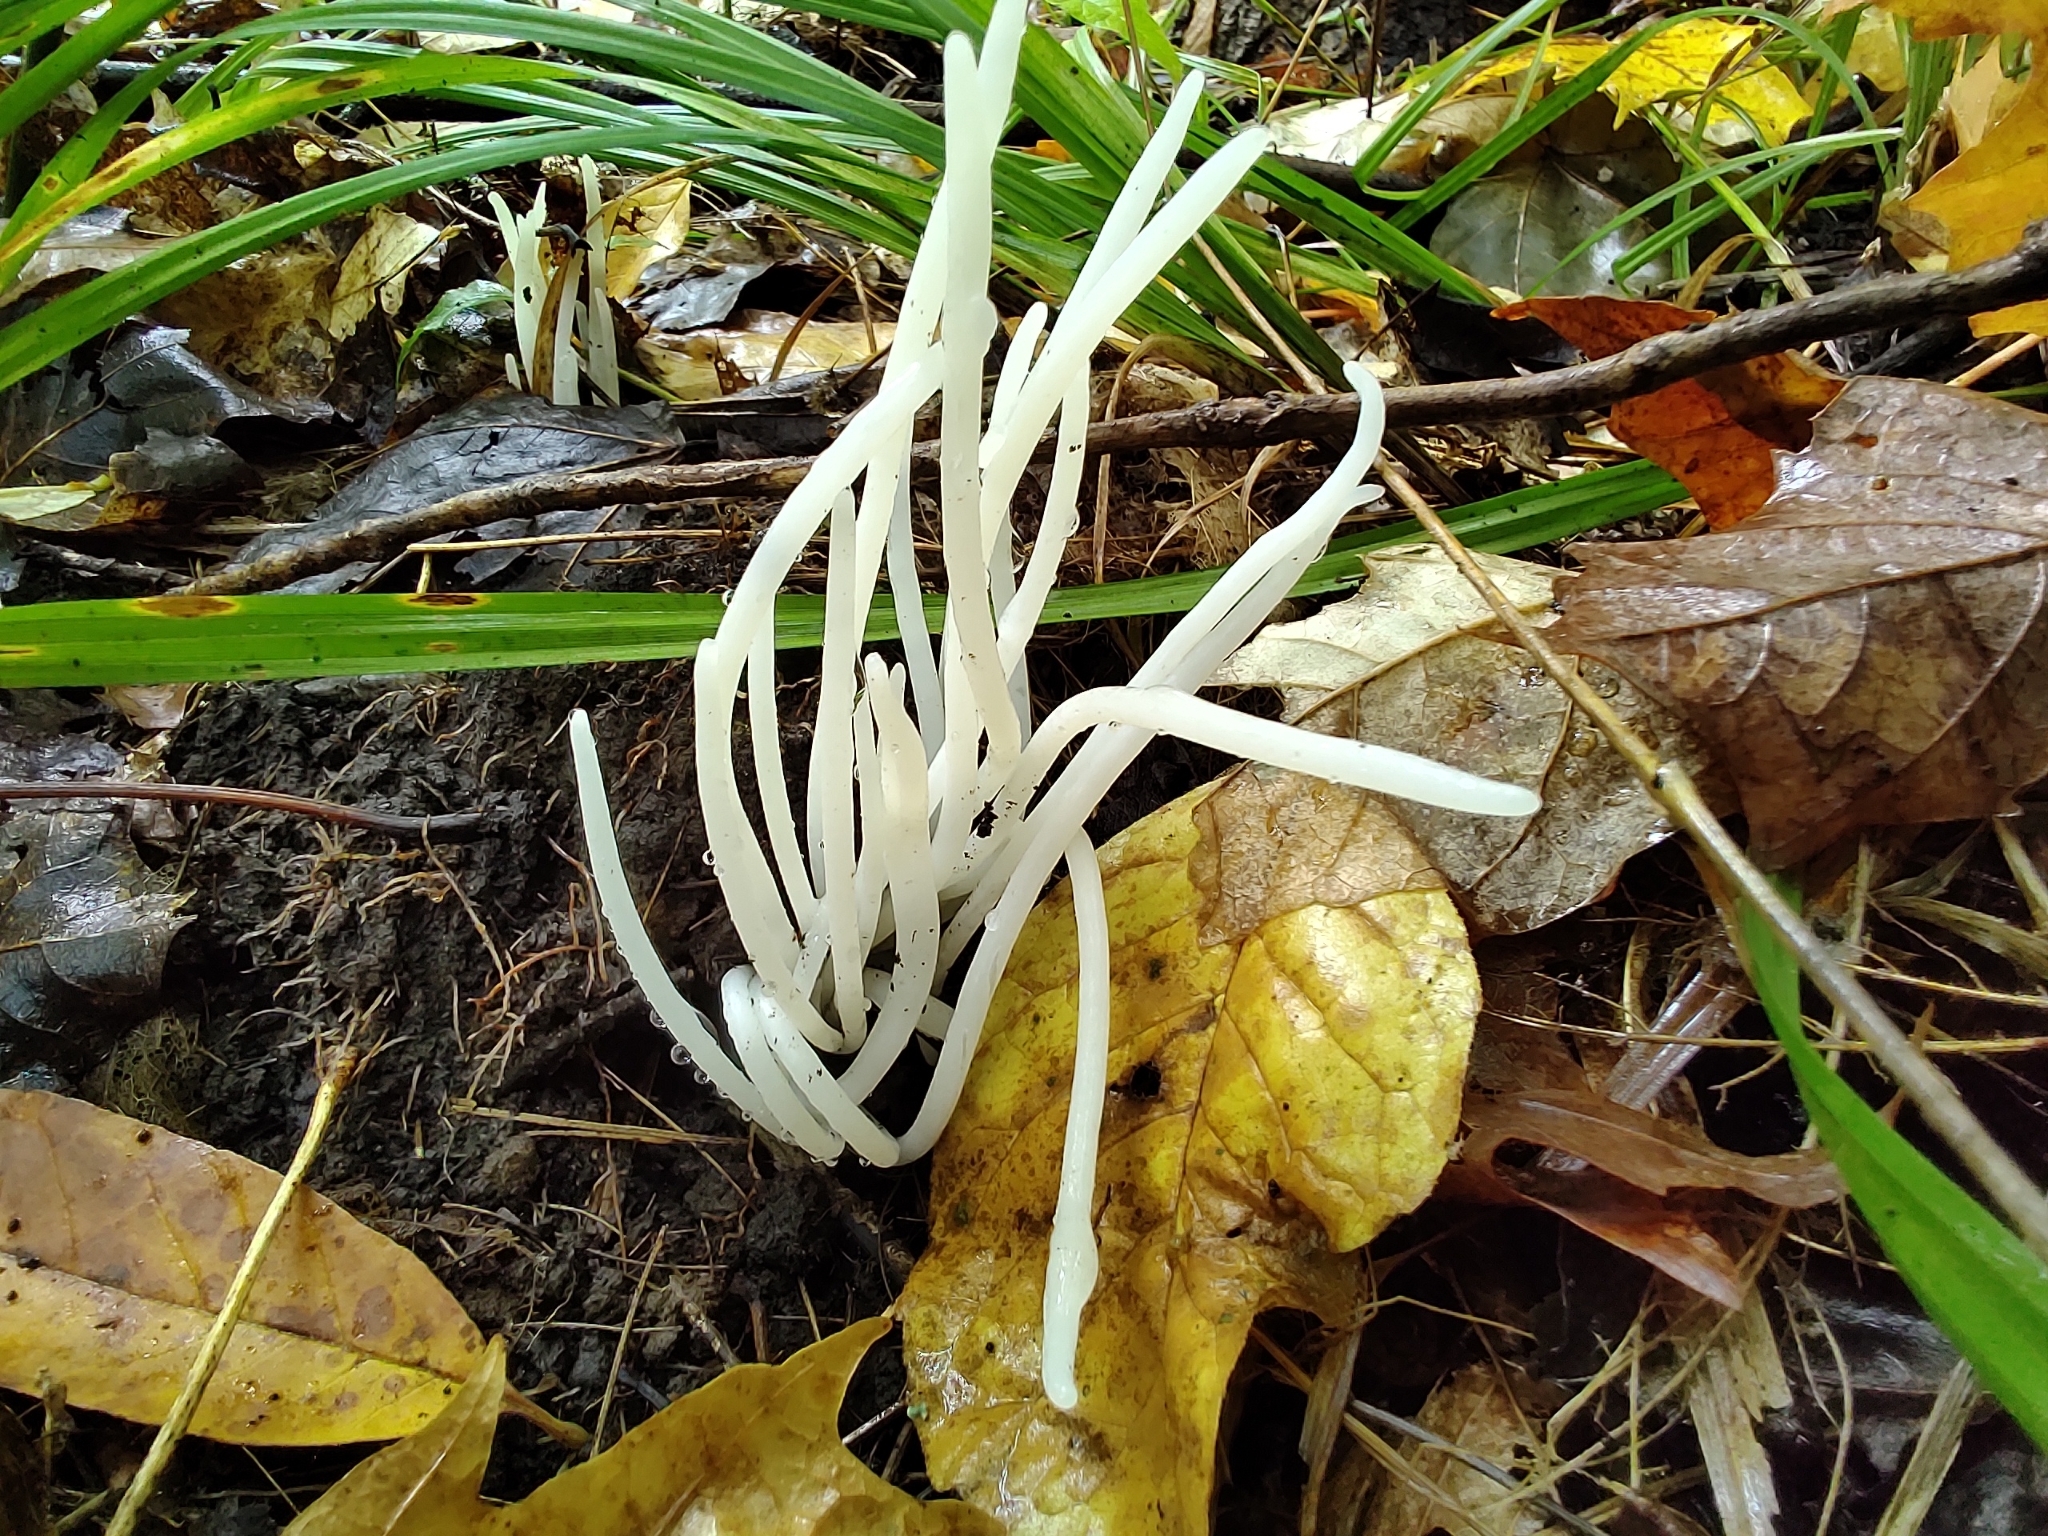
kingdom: Fungi
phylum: Basidiomycota
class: Agaricomycetes
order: Agaricales
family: Clavariaceae
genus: Clavaria
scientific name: Clavaria fragilis
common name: White spindles
